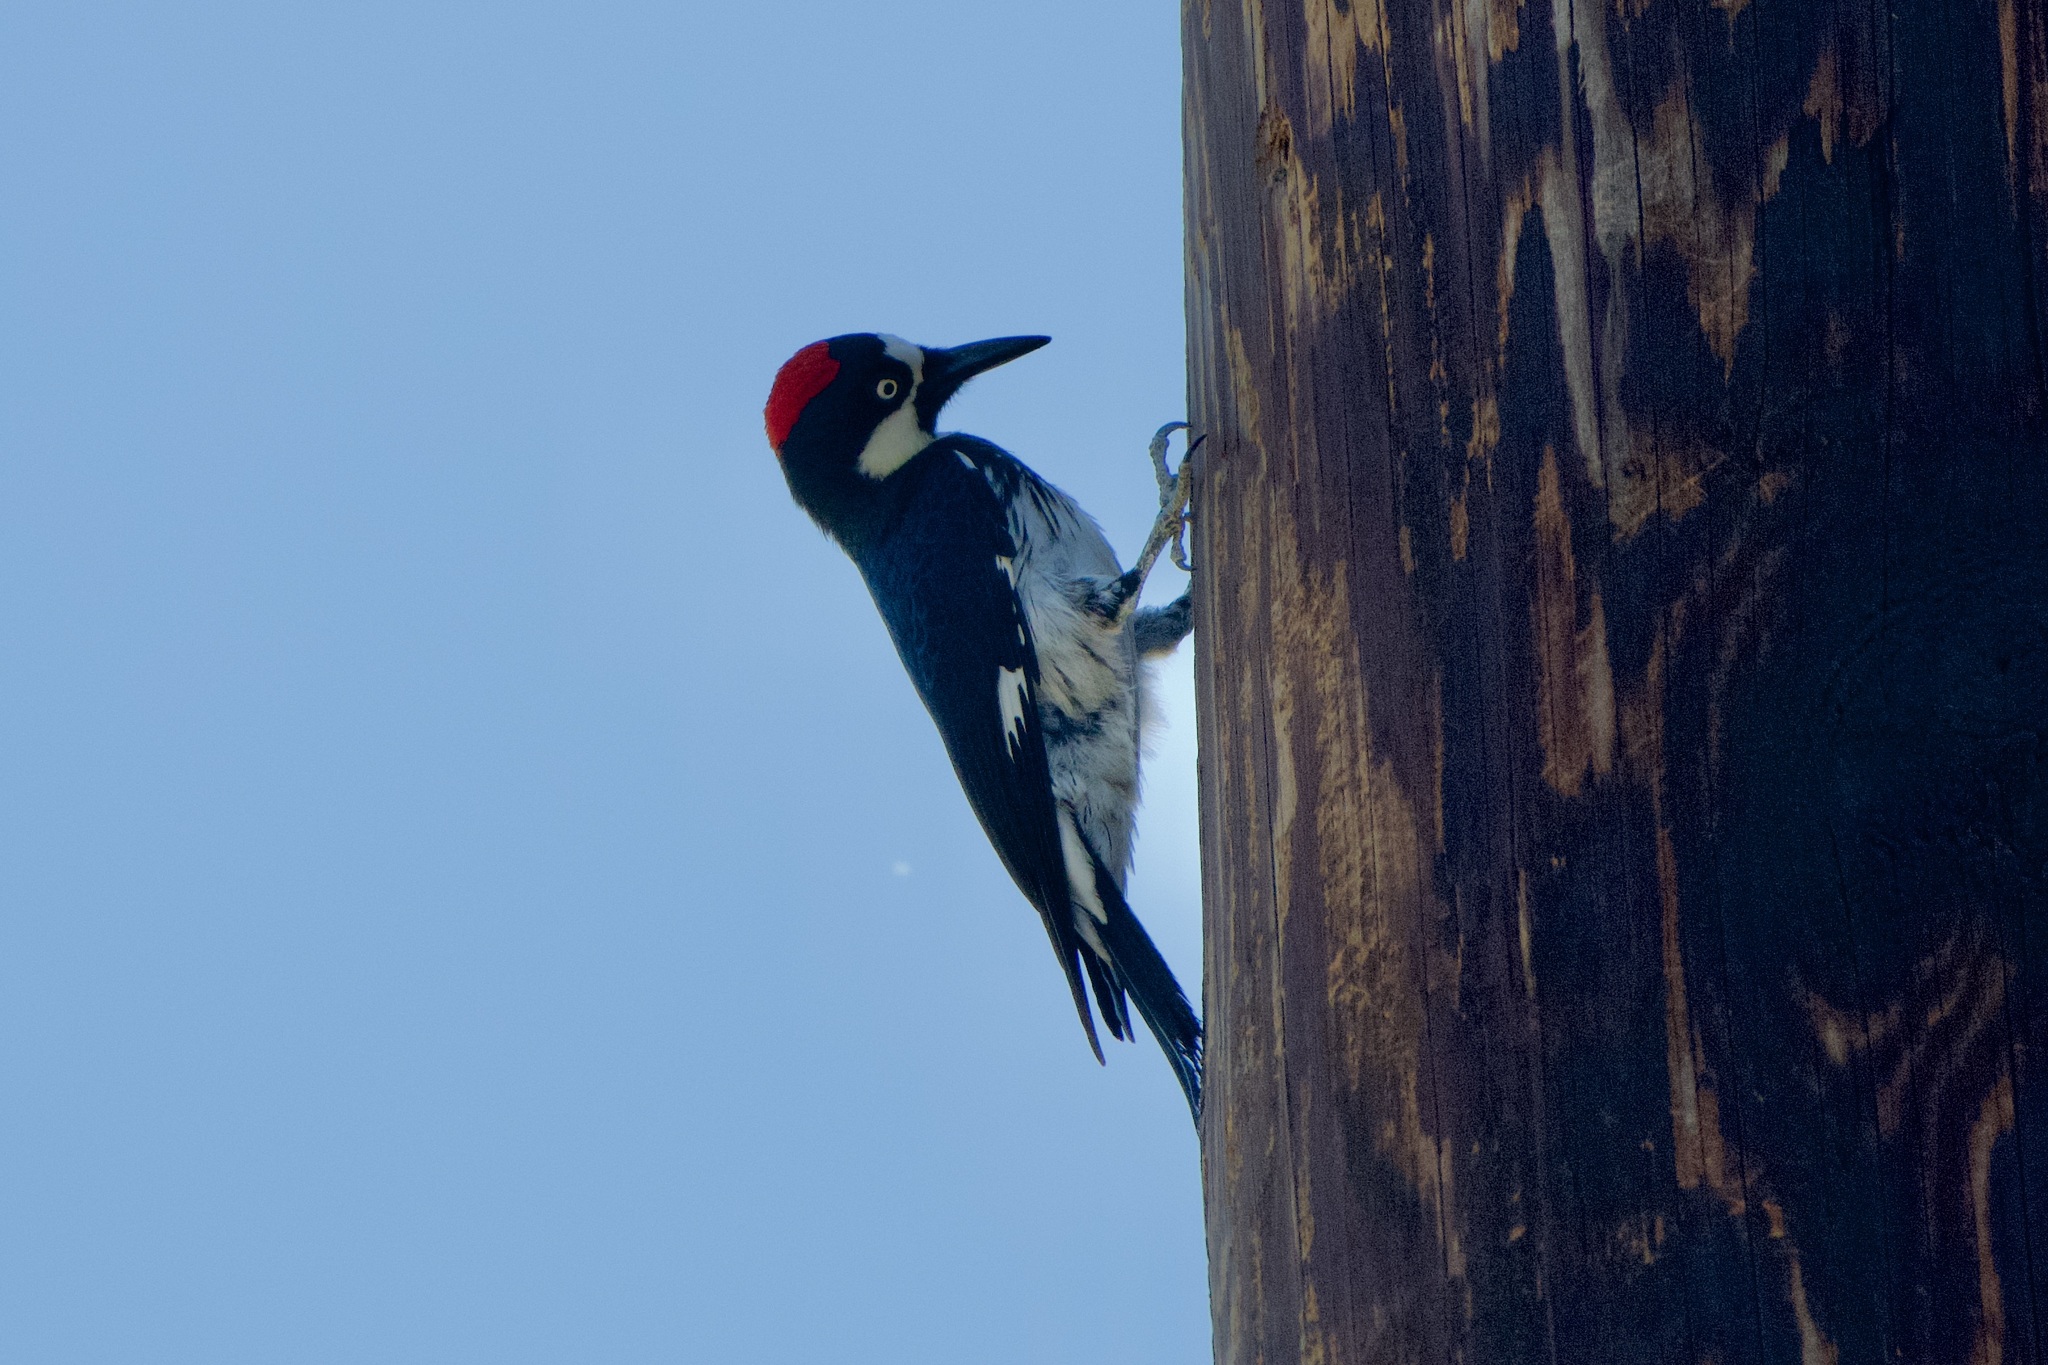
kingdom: Animalia
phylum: Chordata
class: Aves
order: Piciformes
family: Picidae
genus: Melanerpes
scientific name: Melanerpes formicivorus
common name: Acorn woodpecker
